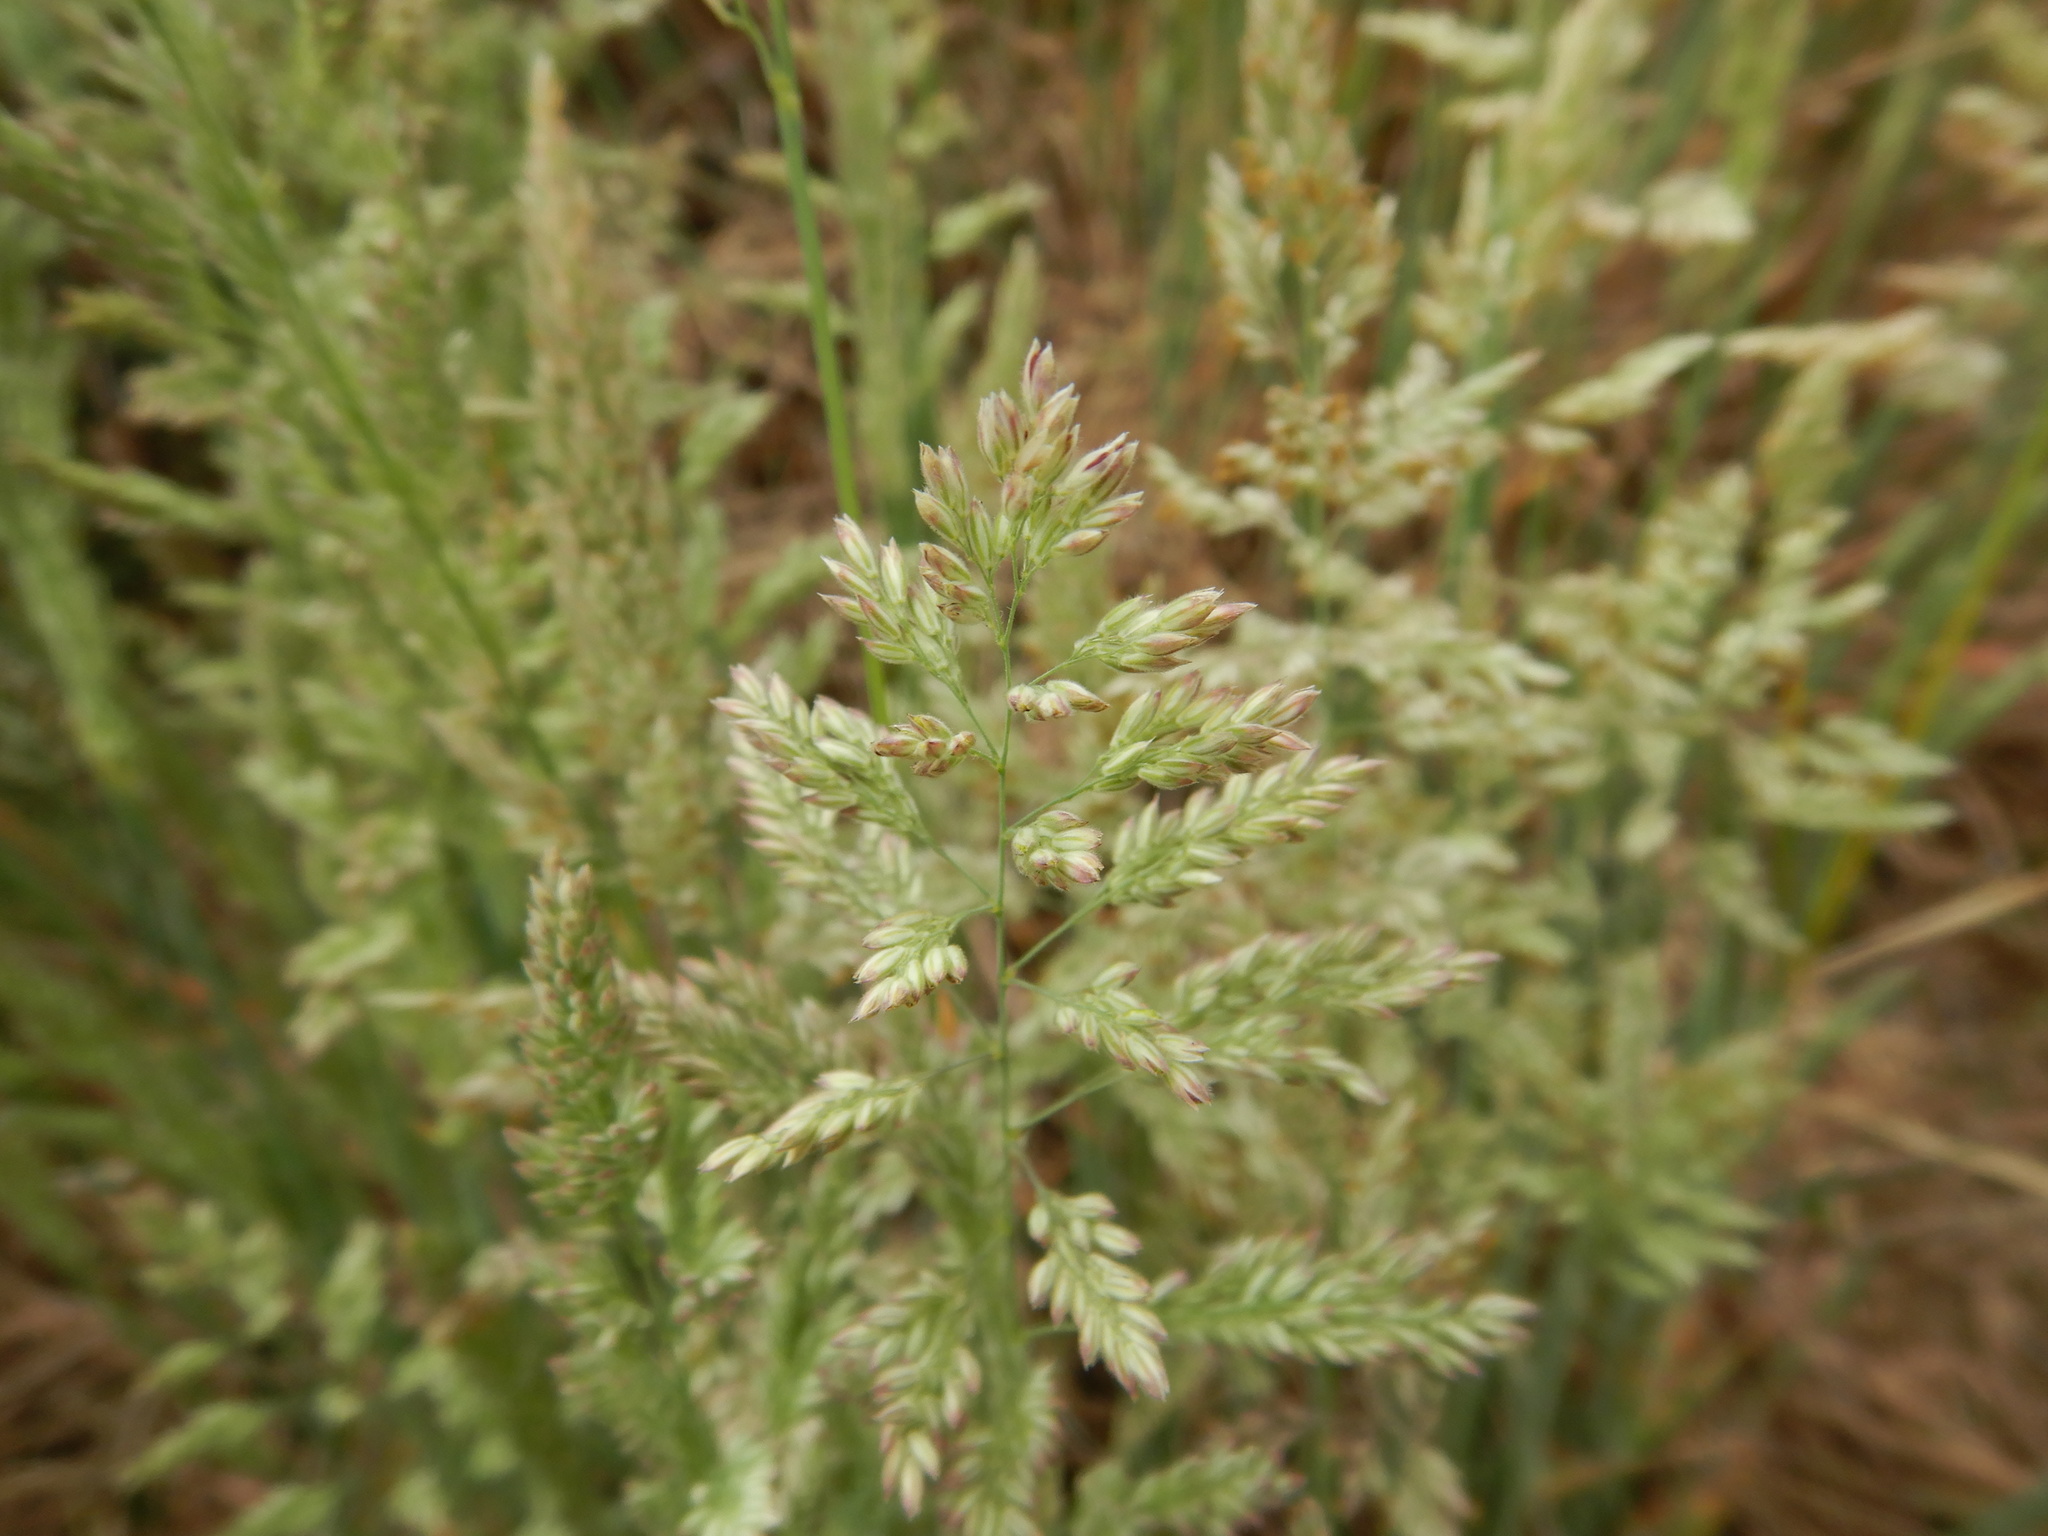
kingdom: Plantae
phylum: Tracheophyta
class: Liliopsida
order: Poales
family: Poaceae
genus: Holcus
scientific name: Holcus lanatus
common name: Yorkshire-fog
